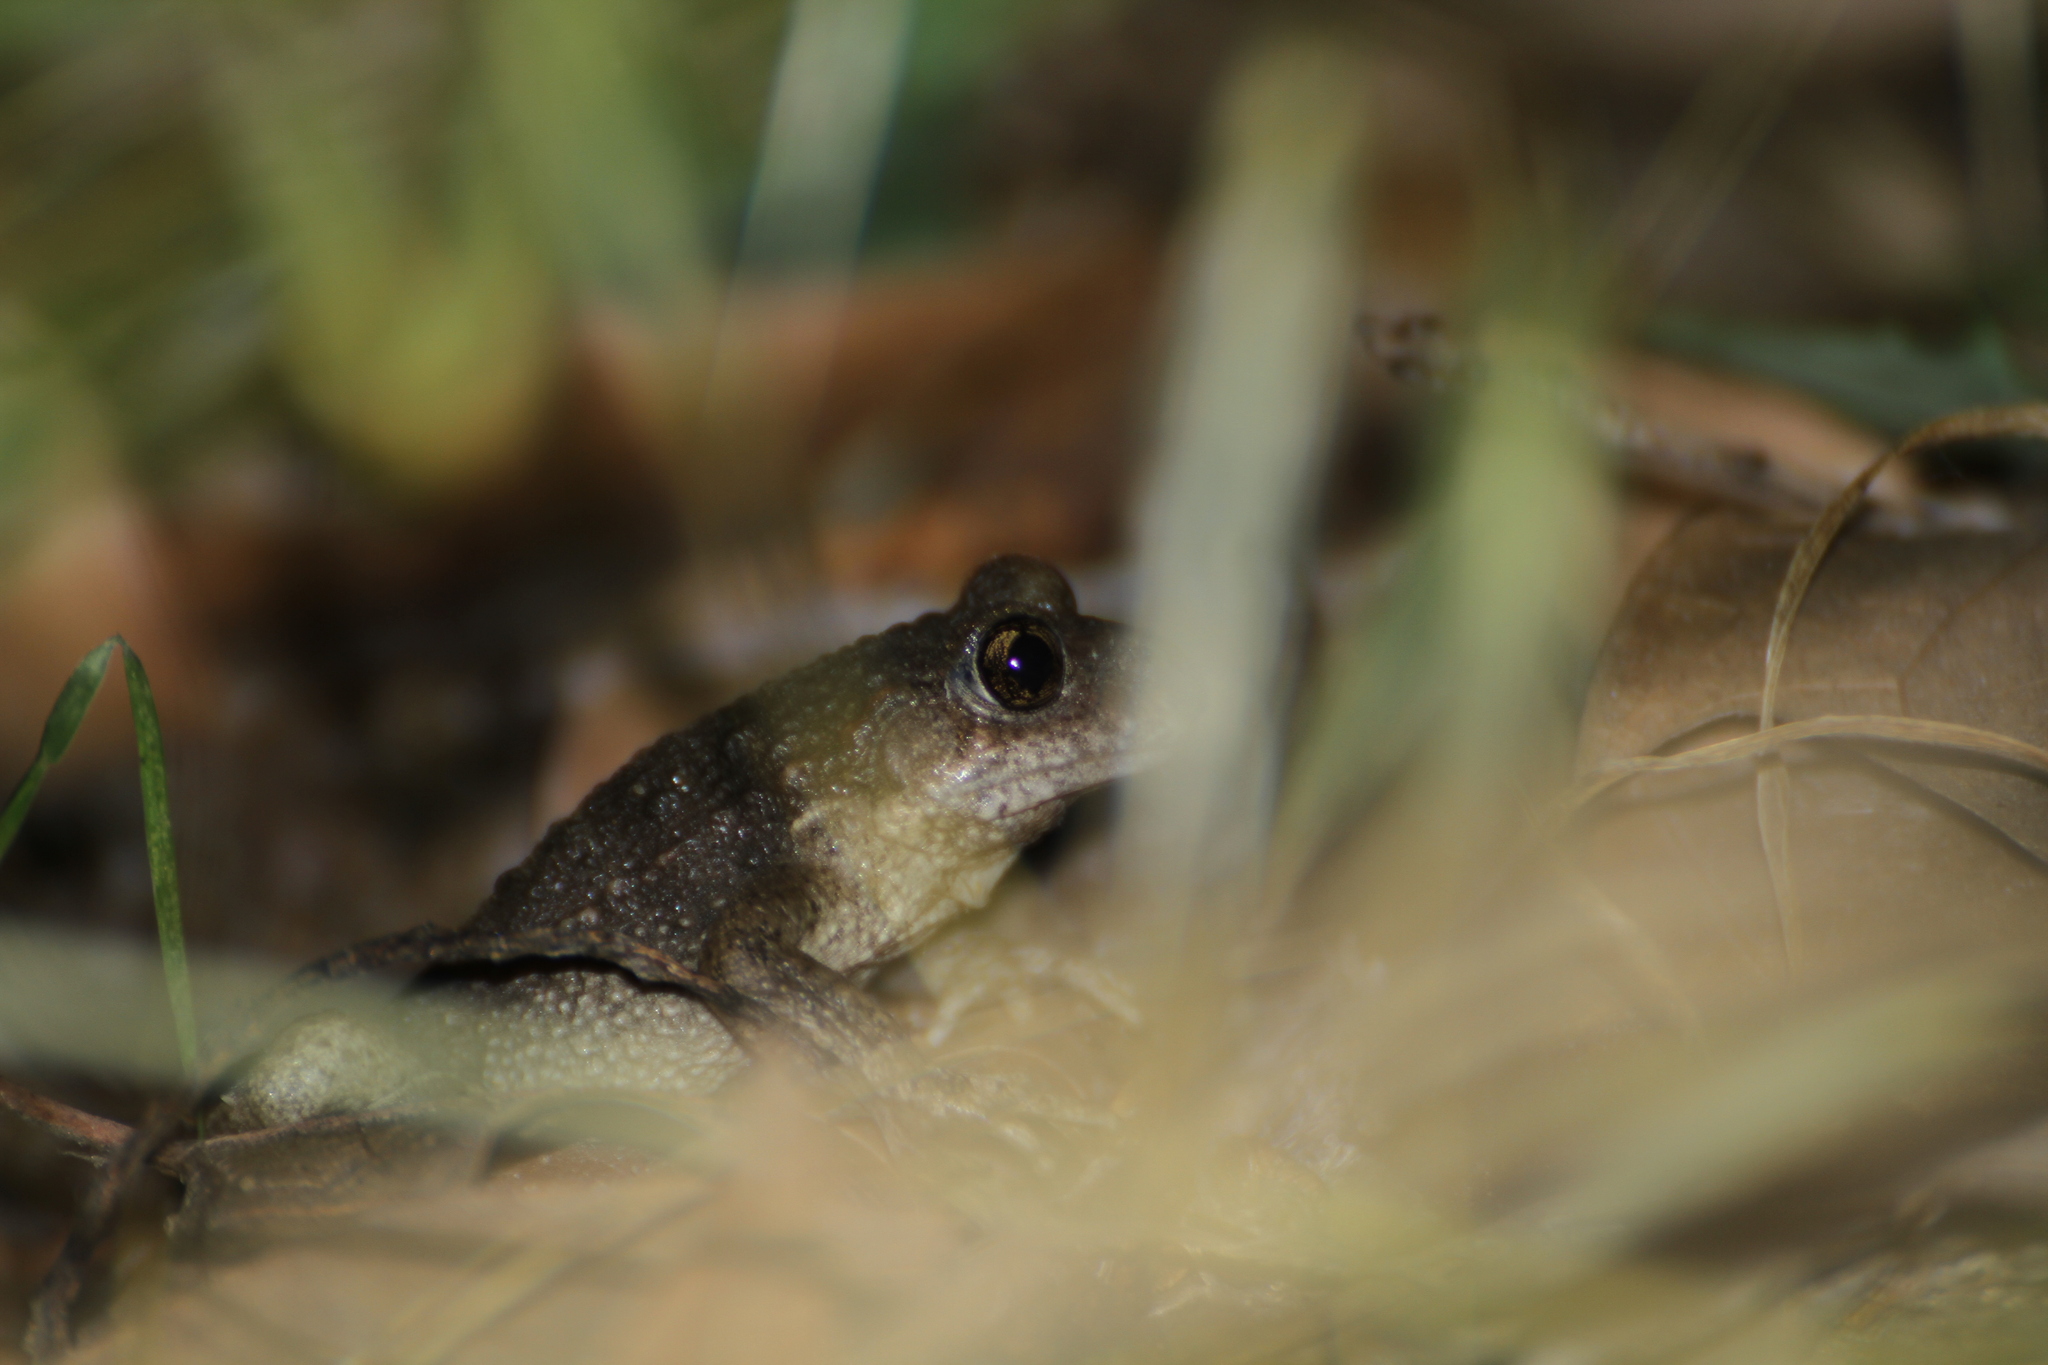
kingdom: Animalia
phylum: Chordata
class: Amphibia
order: Anura
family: Alytidae
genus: Alytes
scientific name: Alytes obstetricans
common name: Midwife toad
